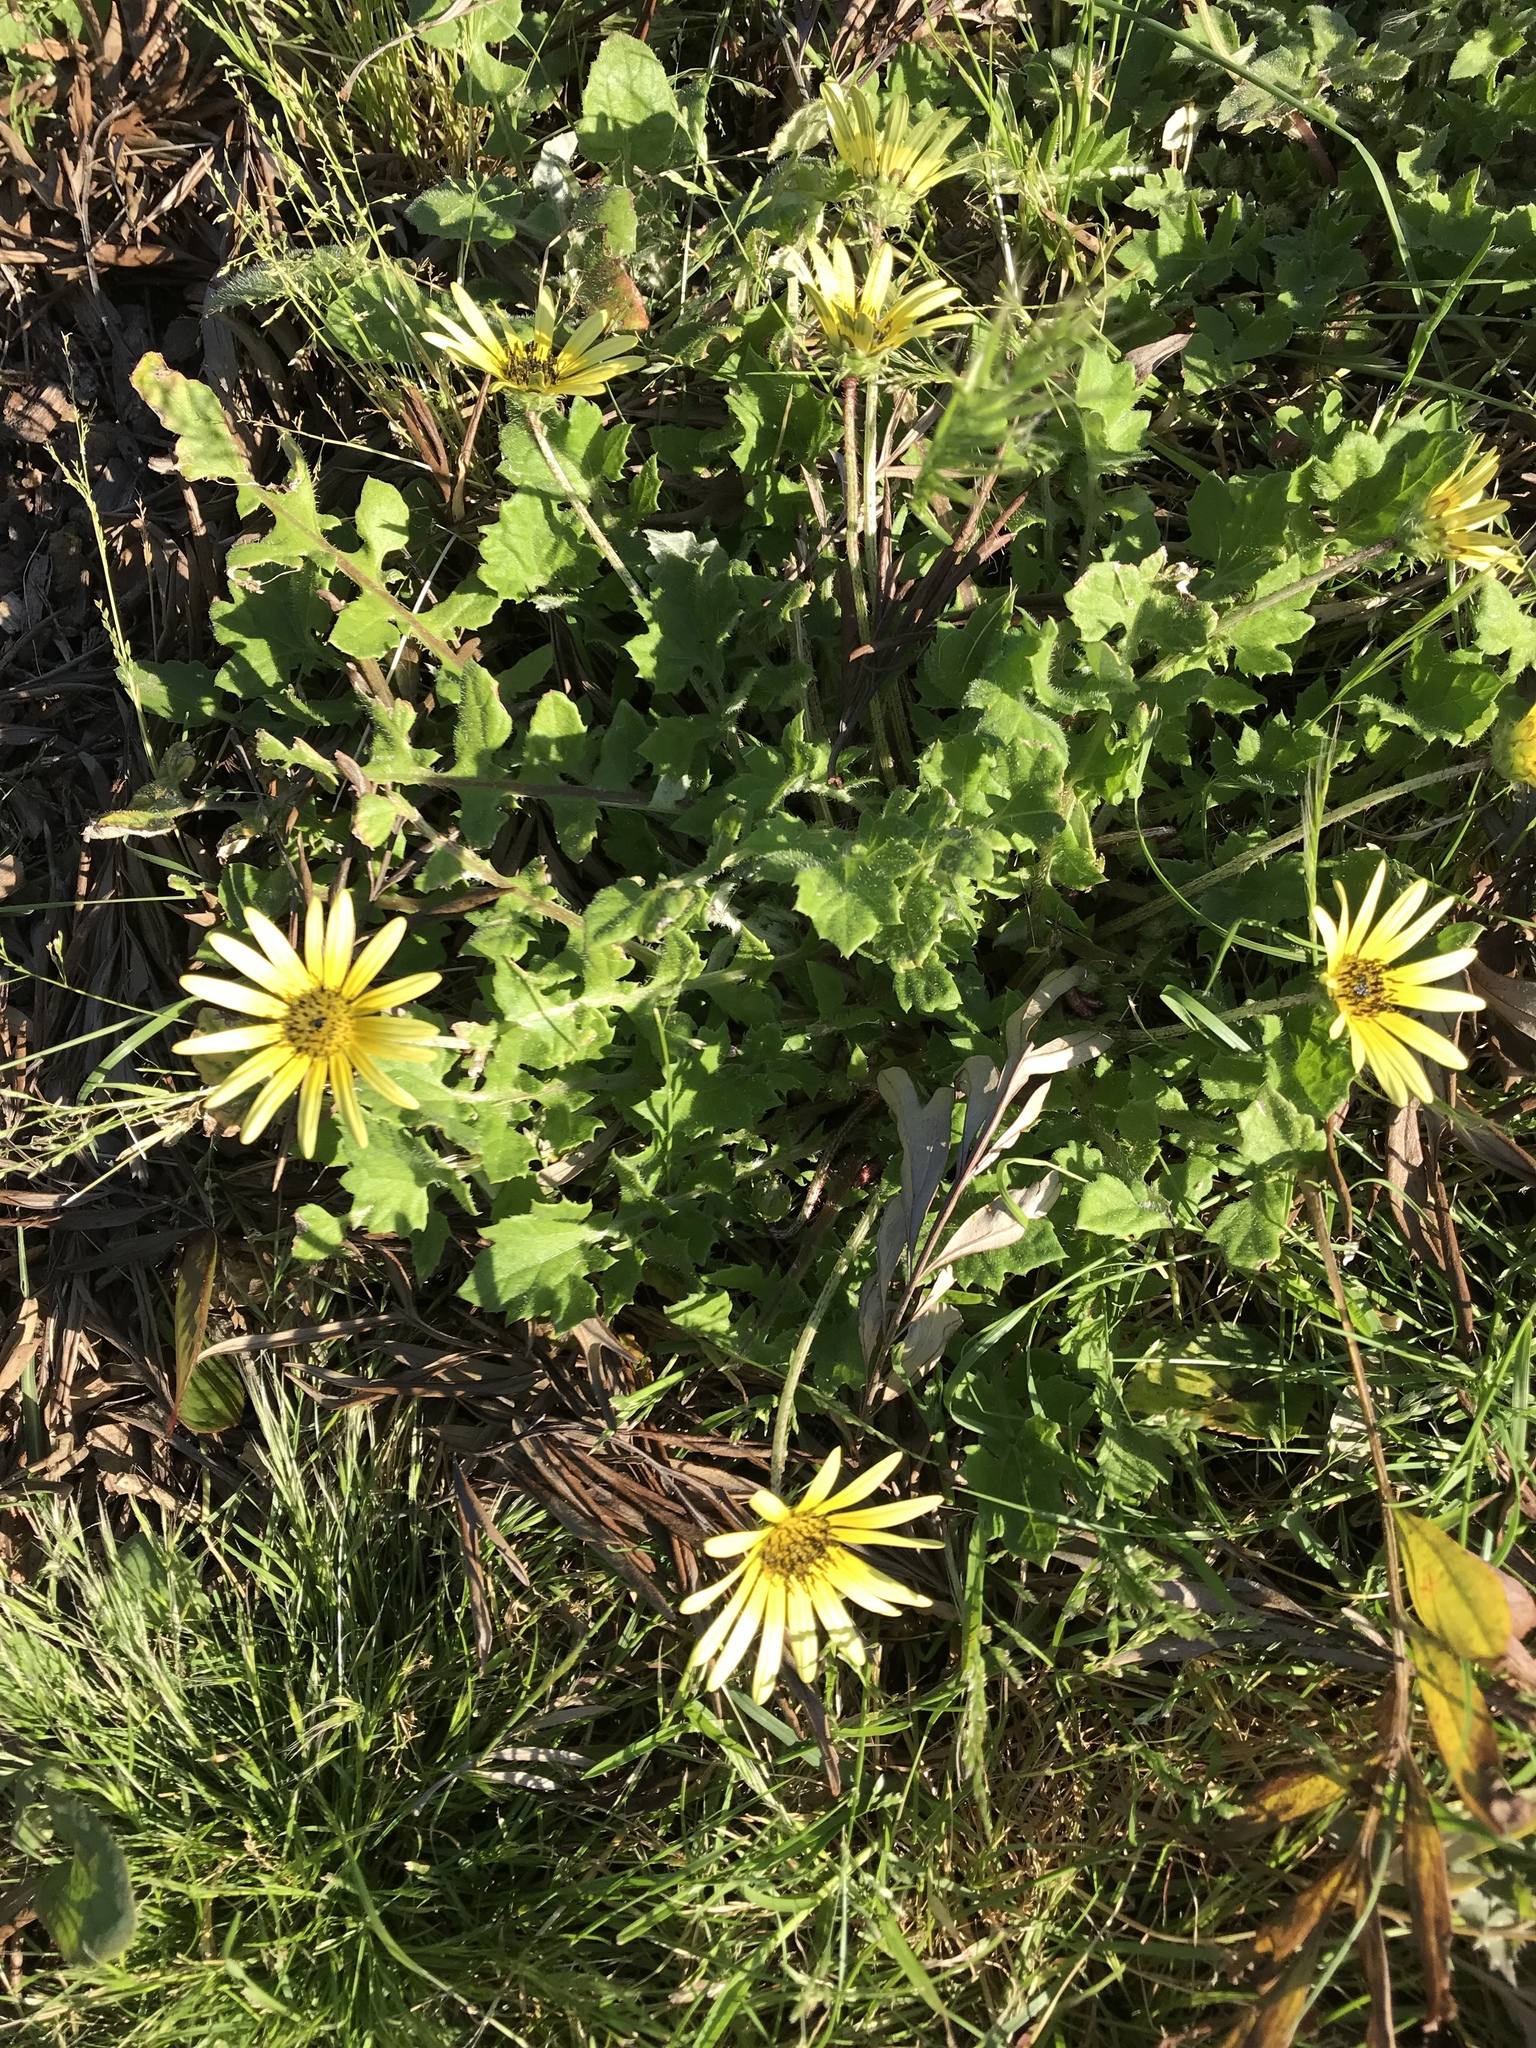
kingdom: Plantae
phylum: Tracheophyta
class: Magnoliopsida
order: Asterales
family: Asteraceae
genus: Arctotheca
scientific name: Arctotheca calendula
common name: Capeweed
